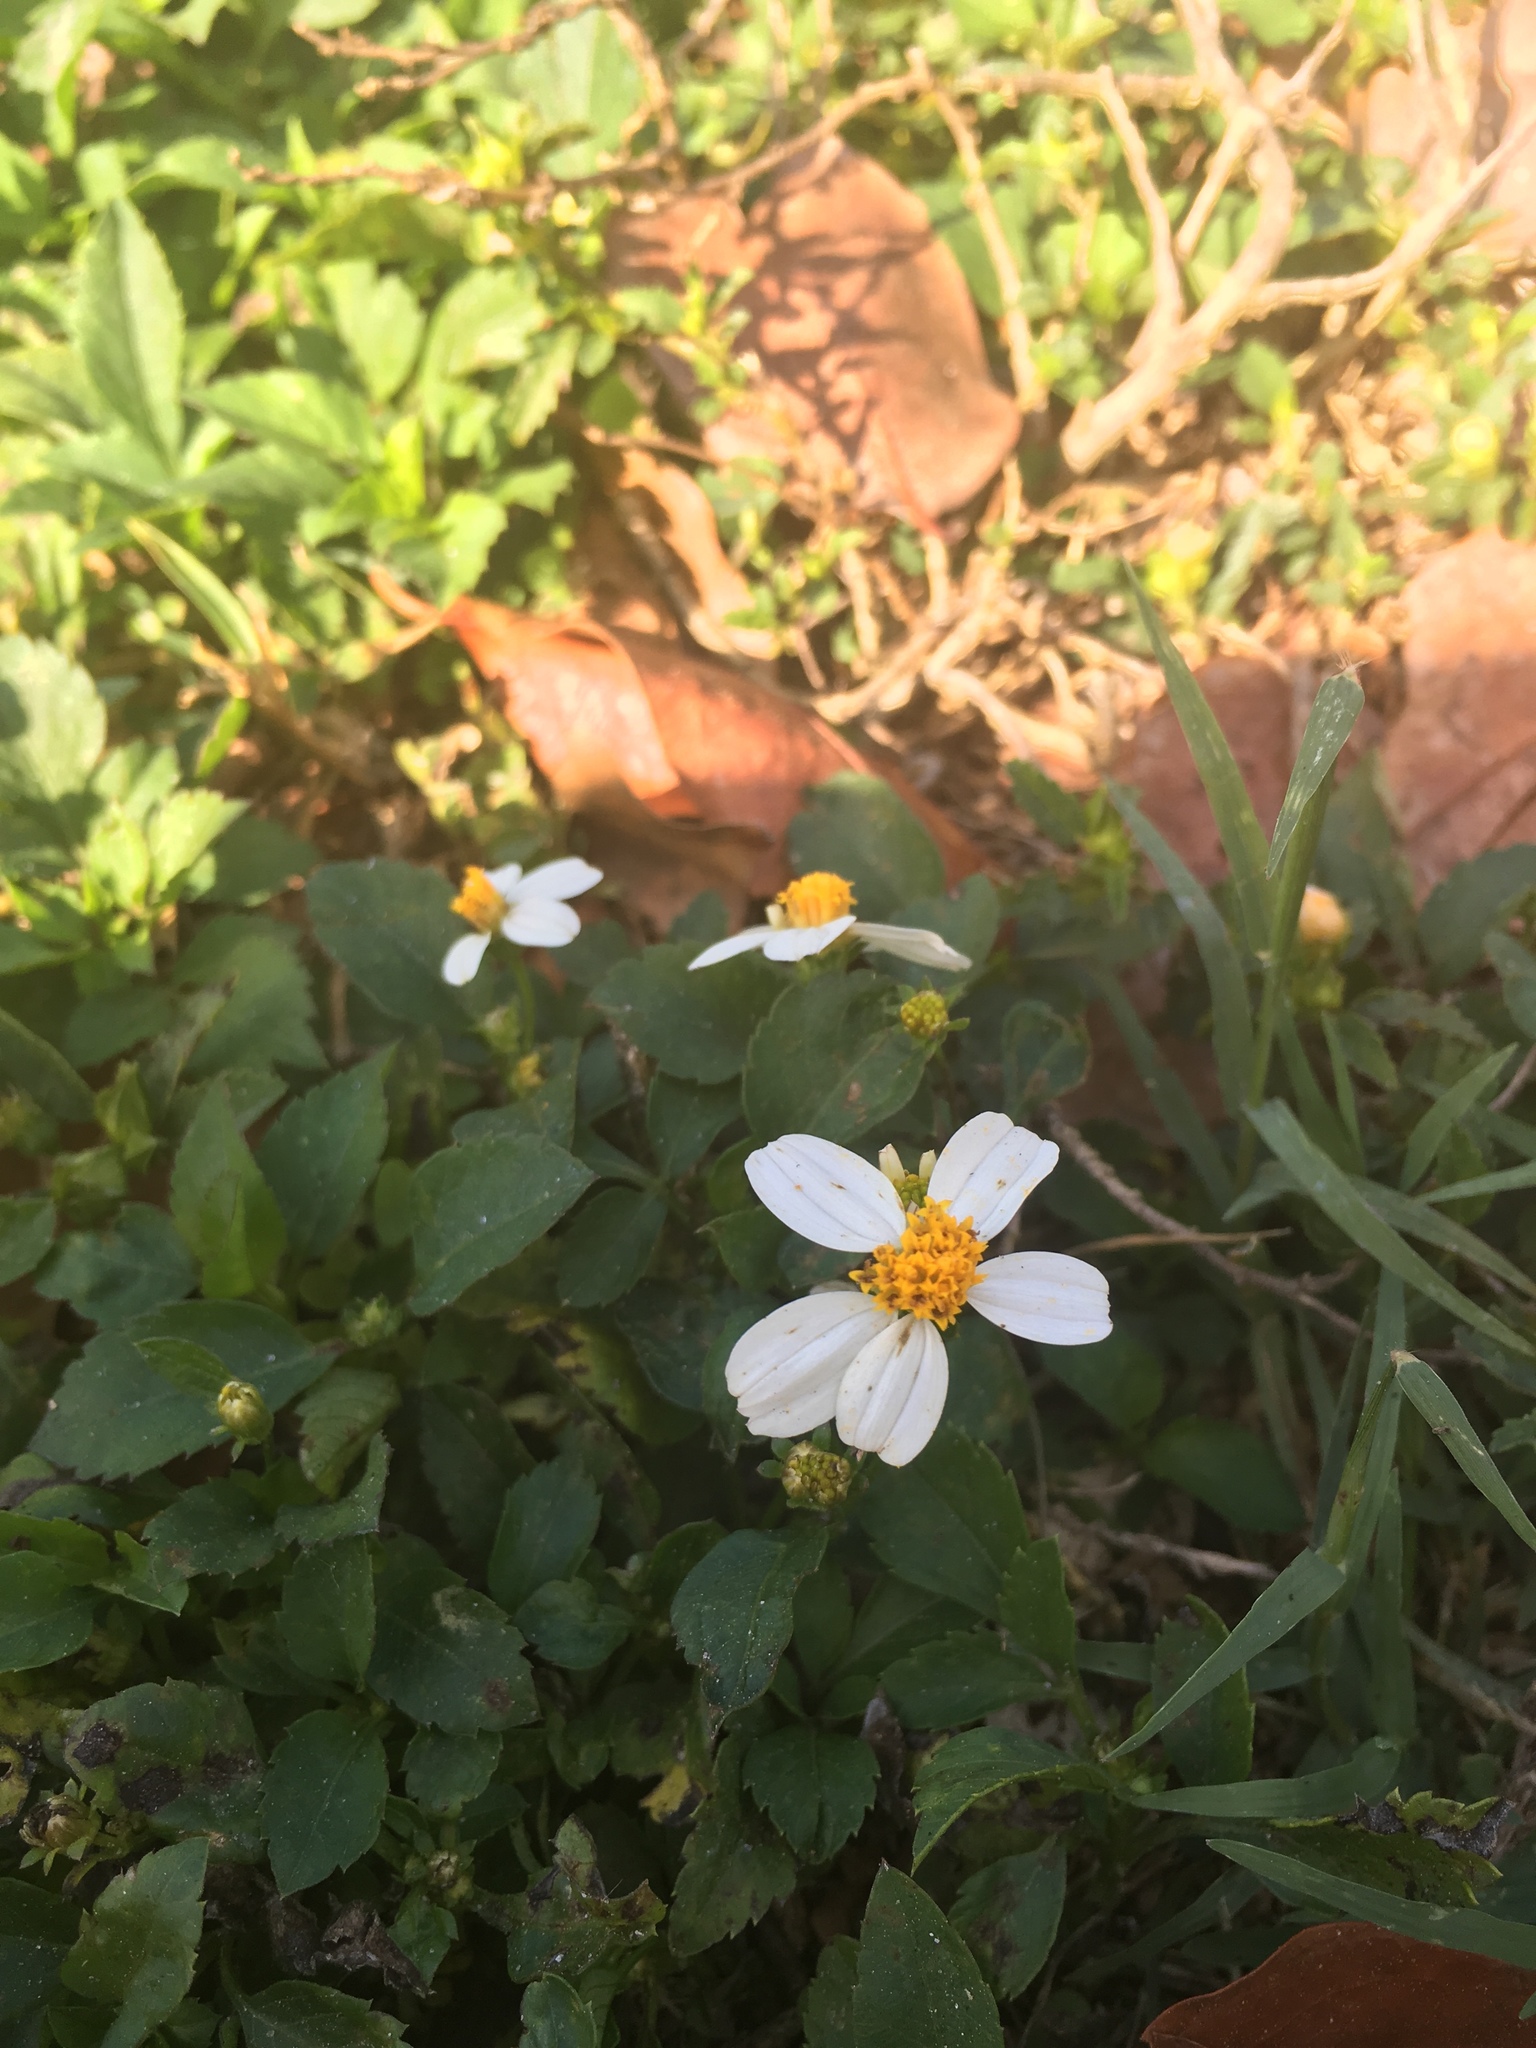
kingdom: Plantae
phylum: Tracheophyta
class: Magnoliopsida
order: Asterales
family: Asteraceae
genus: Bidens
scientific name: Bidens alba
